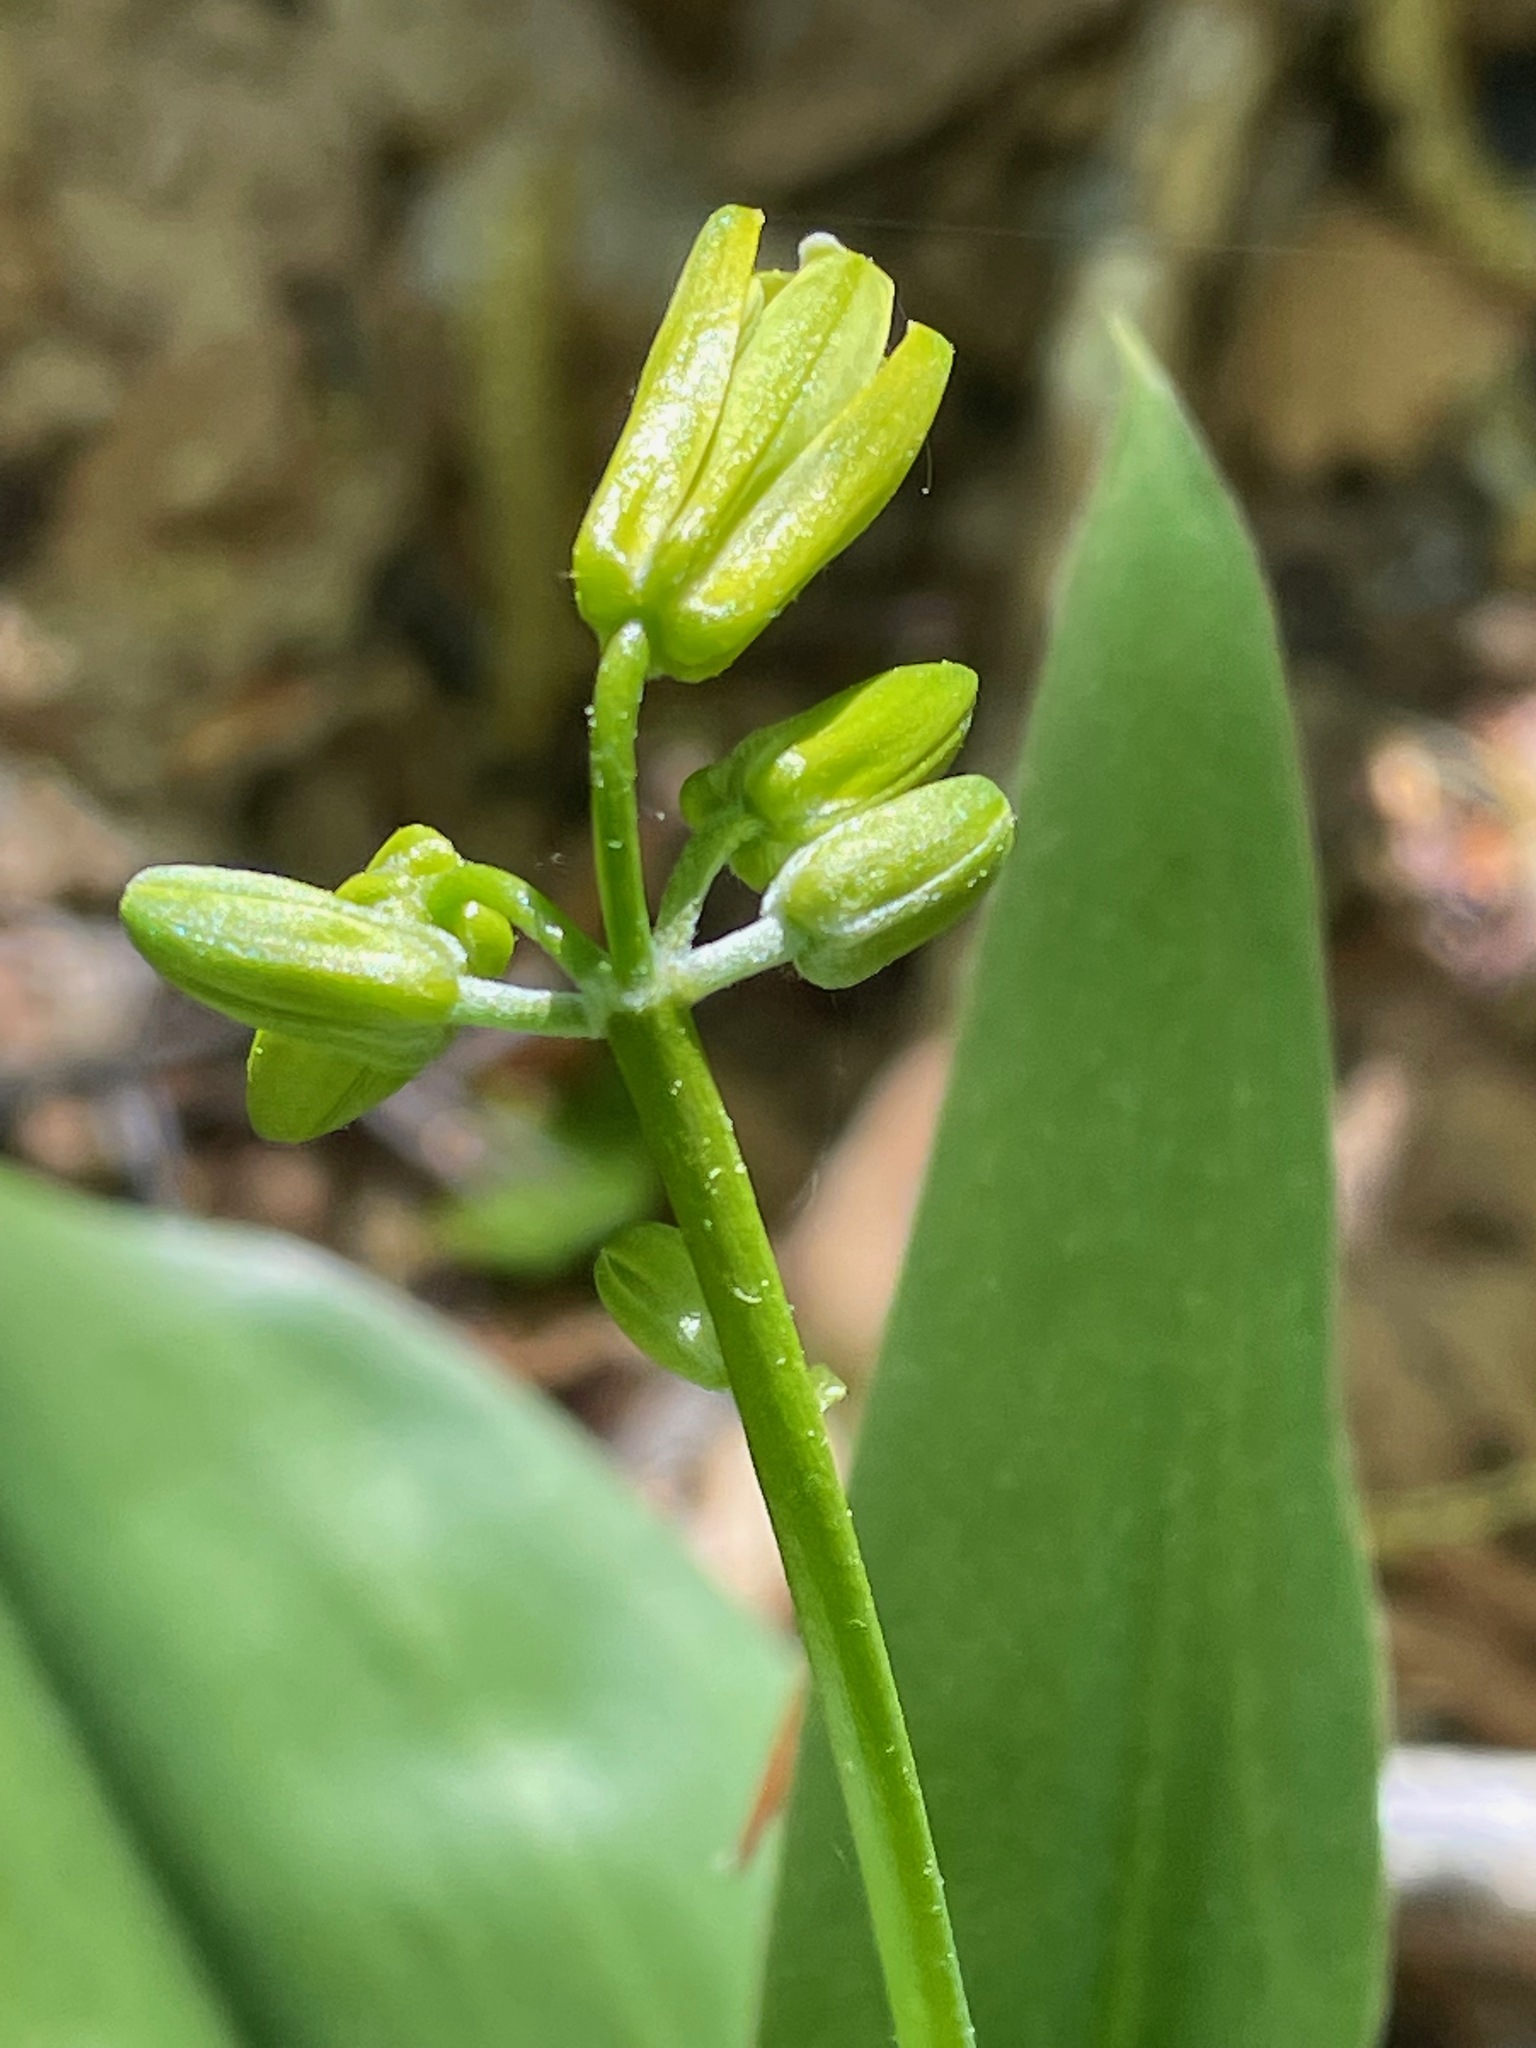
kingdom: Plantae
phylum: Tracheophyta
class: Liliopsida
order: Liliales
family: Liliaceae
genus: Clintonia
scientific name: Clintonia borealis
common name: Yellow clintonia
